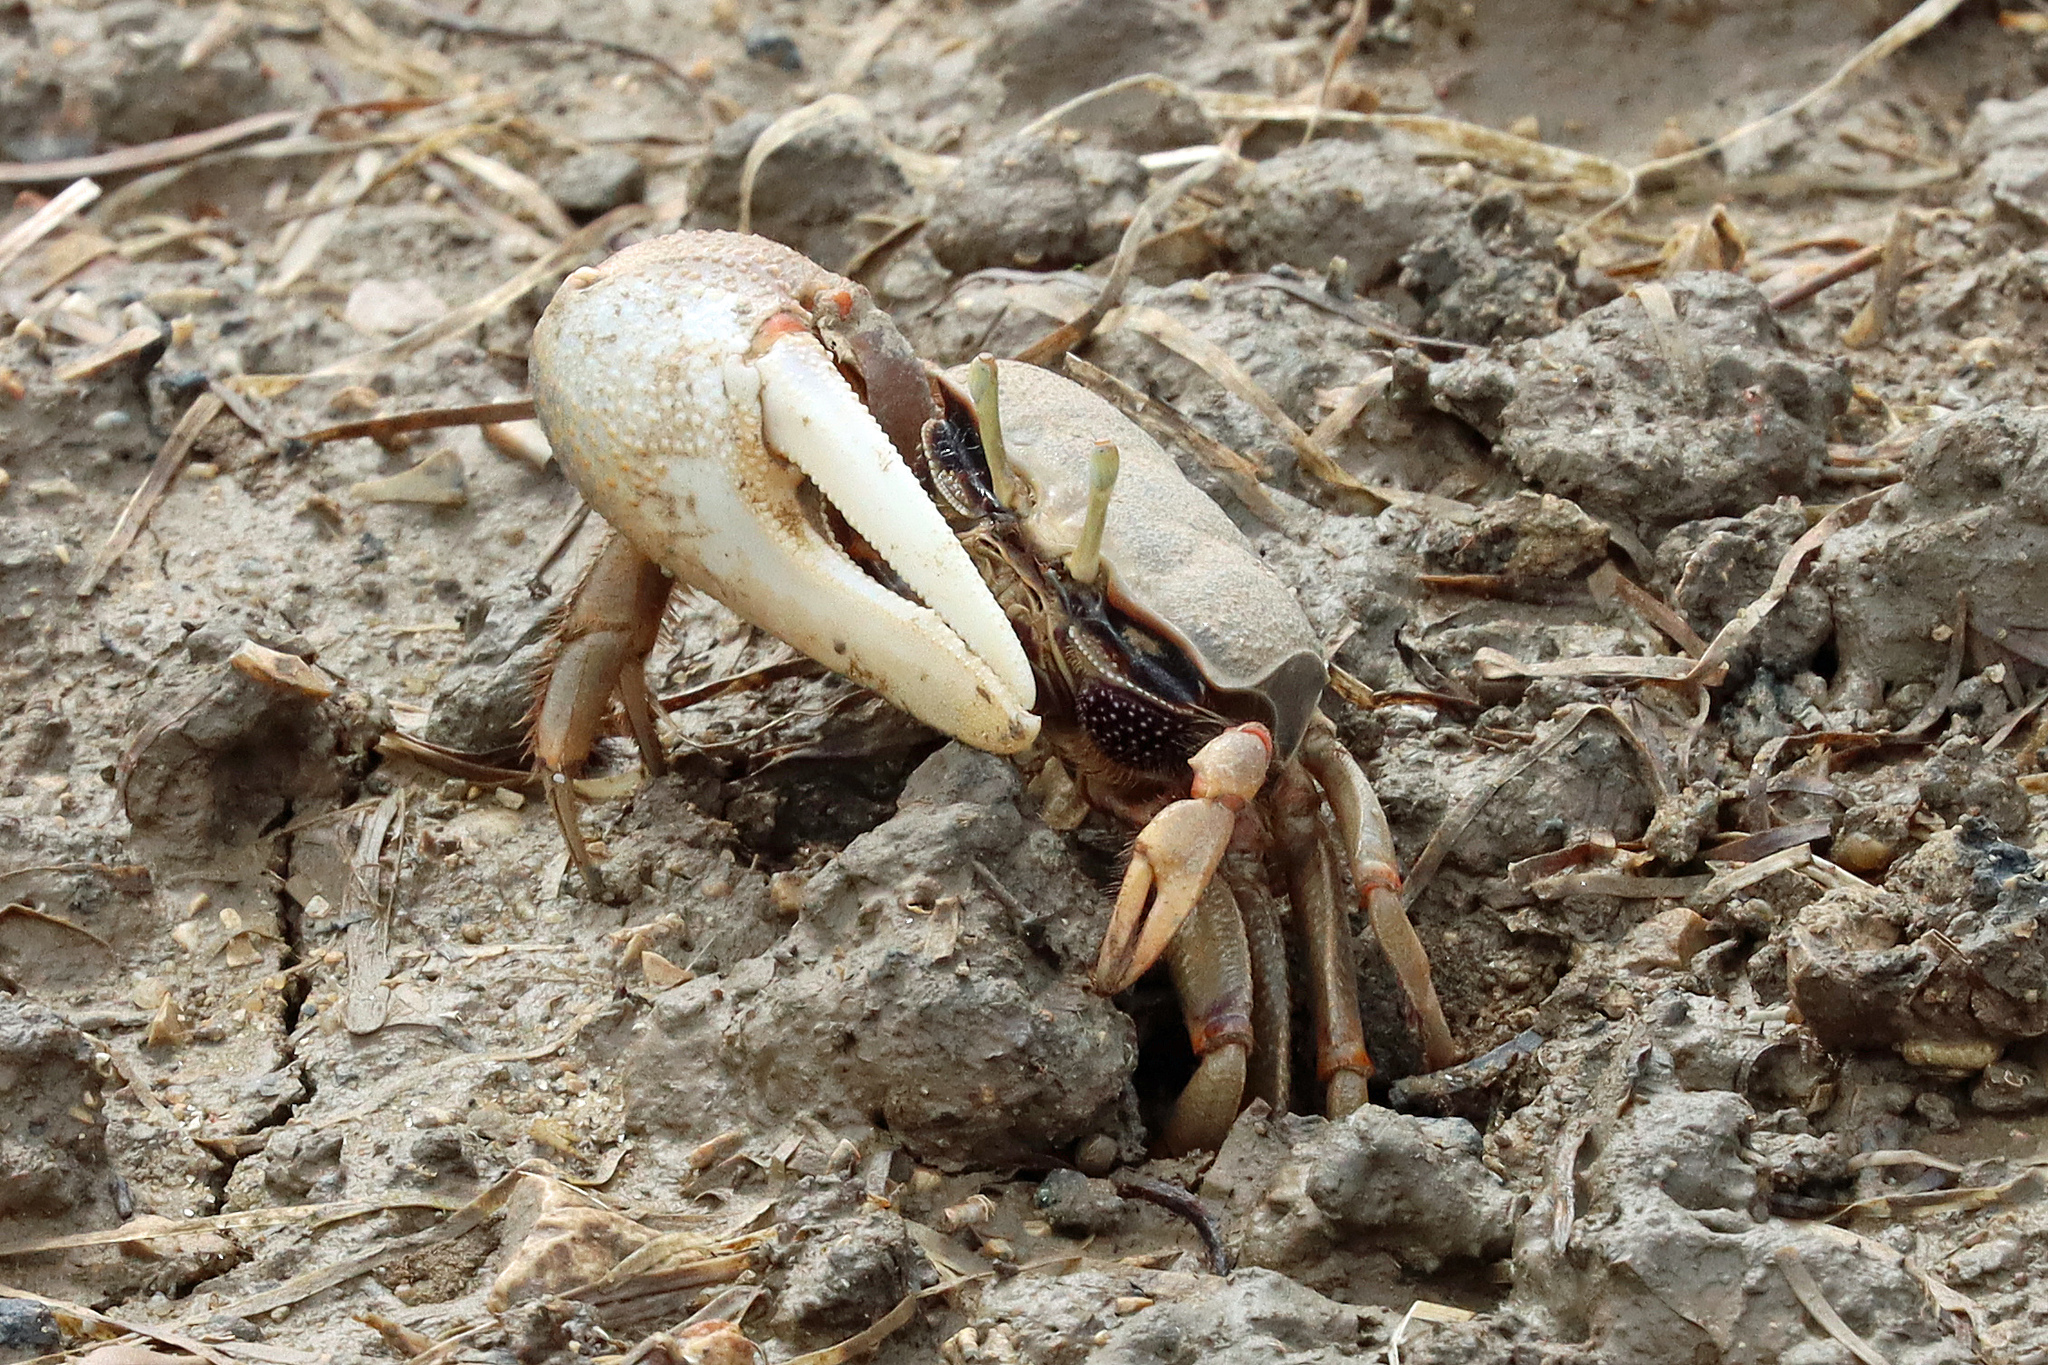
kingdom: Animalia
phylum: Arthropoda
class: Malacostraca
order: Decapoda
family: Ocypodidae
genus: Afruca
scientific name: Afruca tangeri
